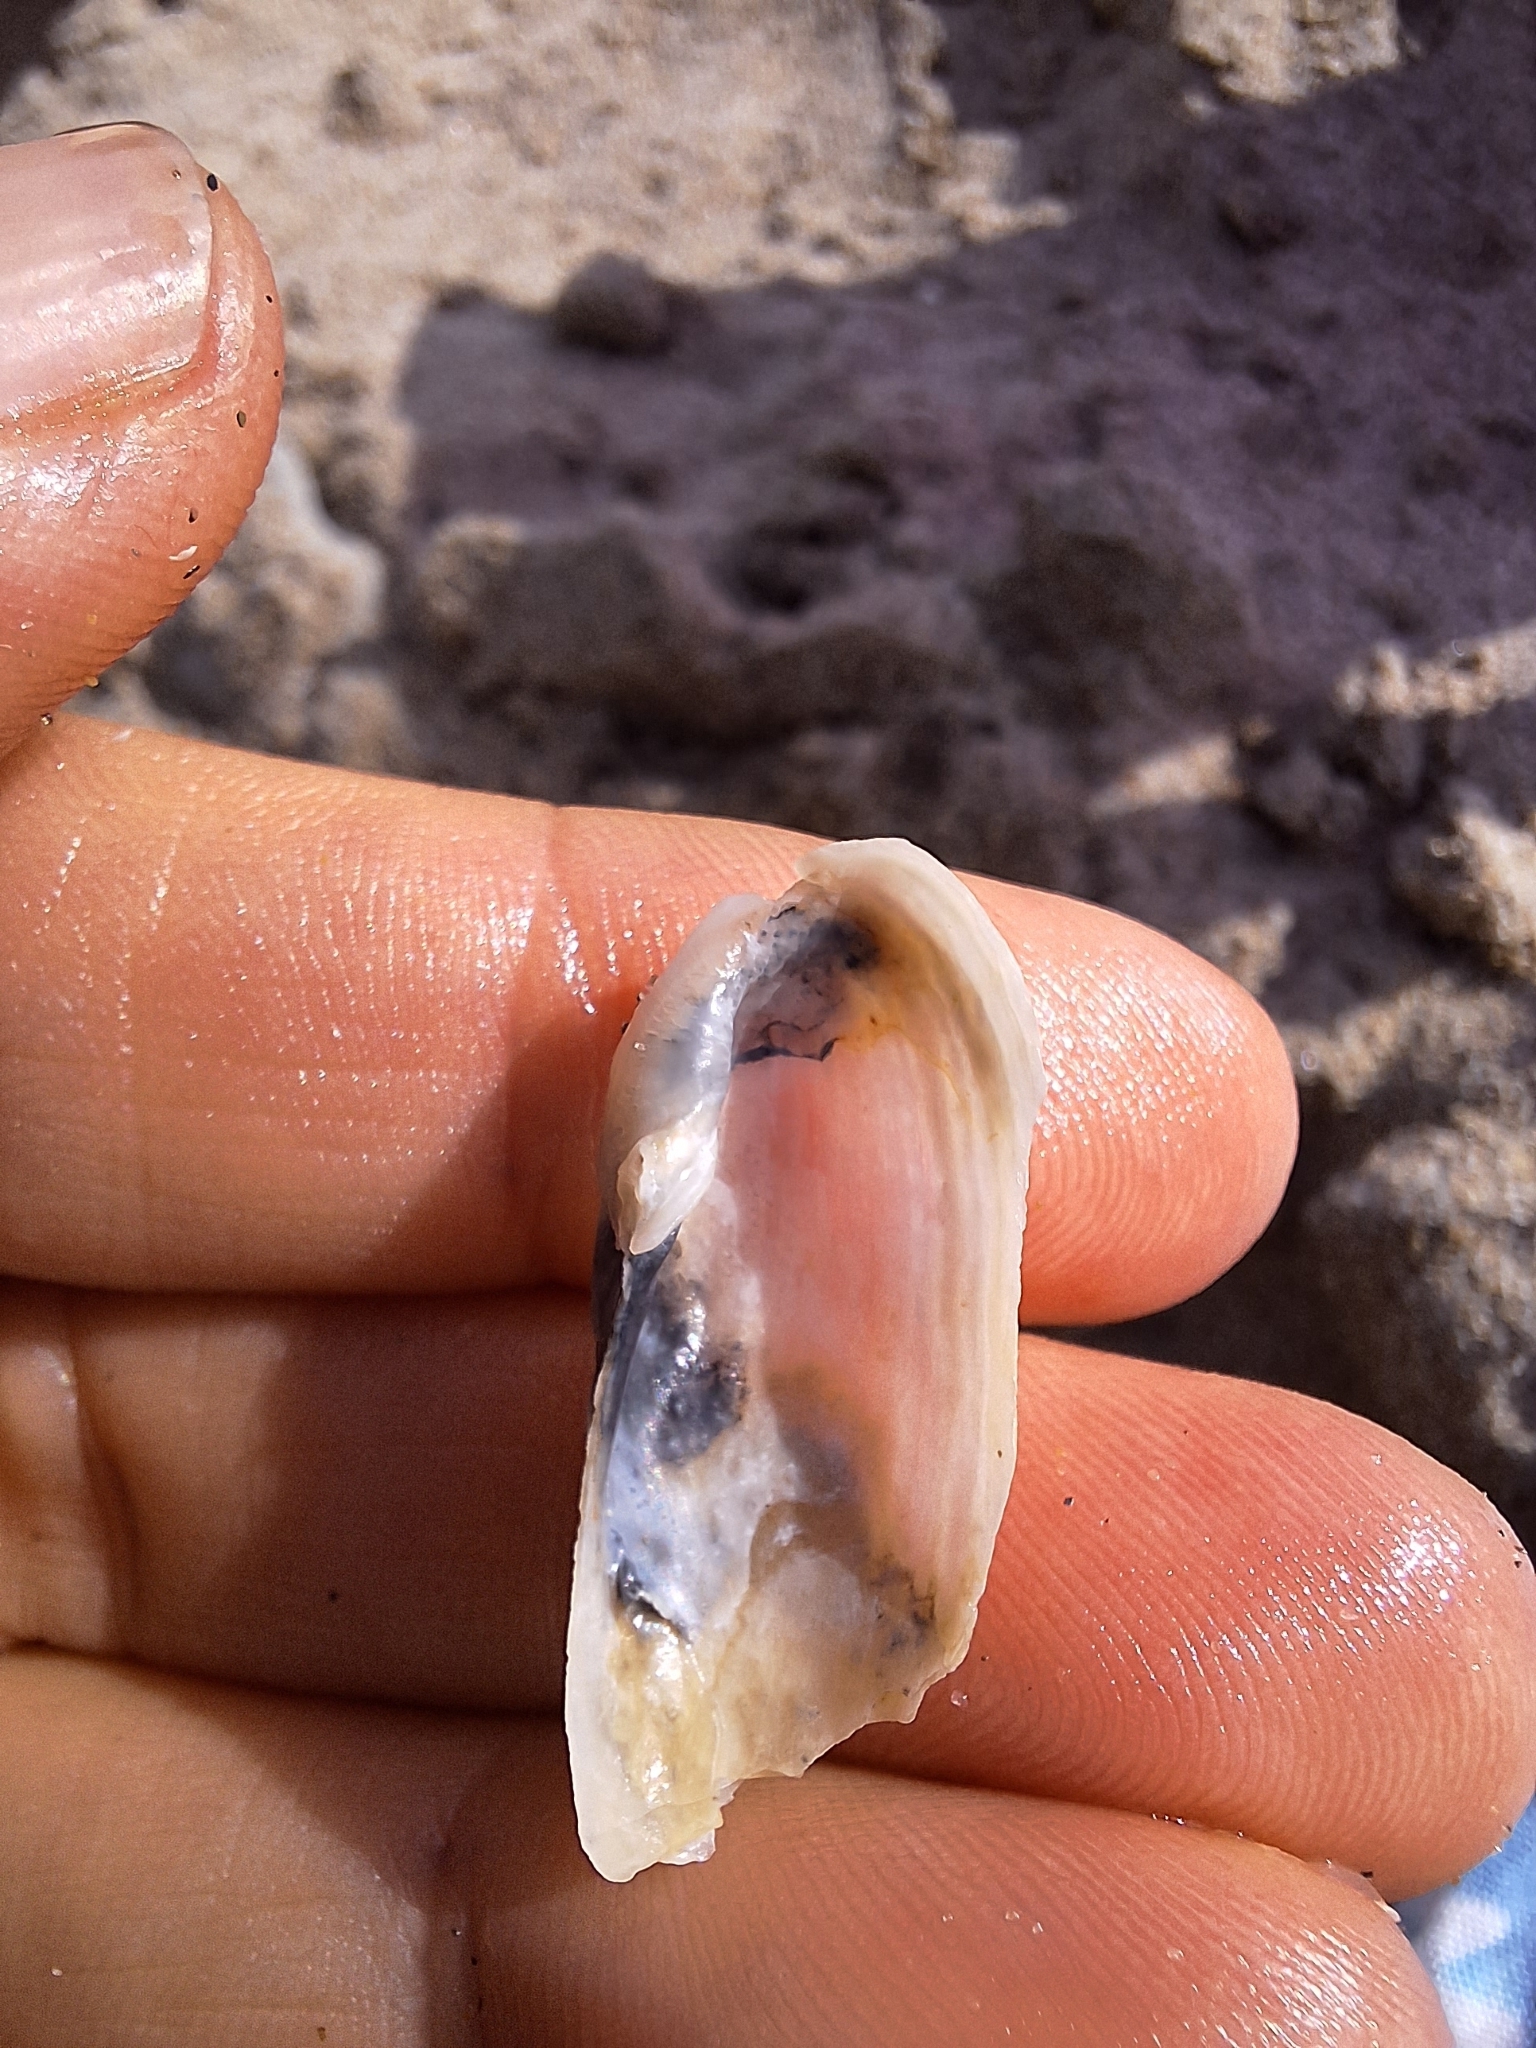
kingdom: Animalia
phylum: Mollusca
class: Bivalvia
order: Myida
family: Pholadidae
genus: Barnea
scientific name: Barnea candida
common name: White piddock
